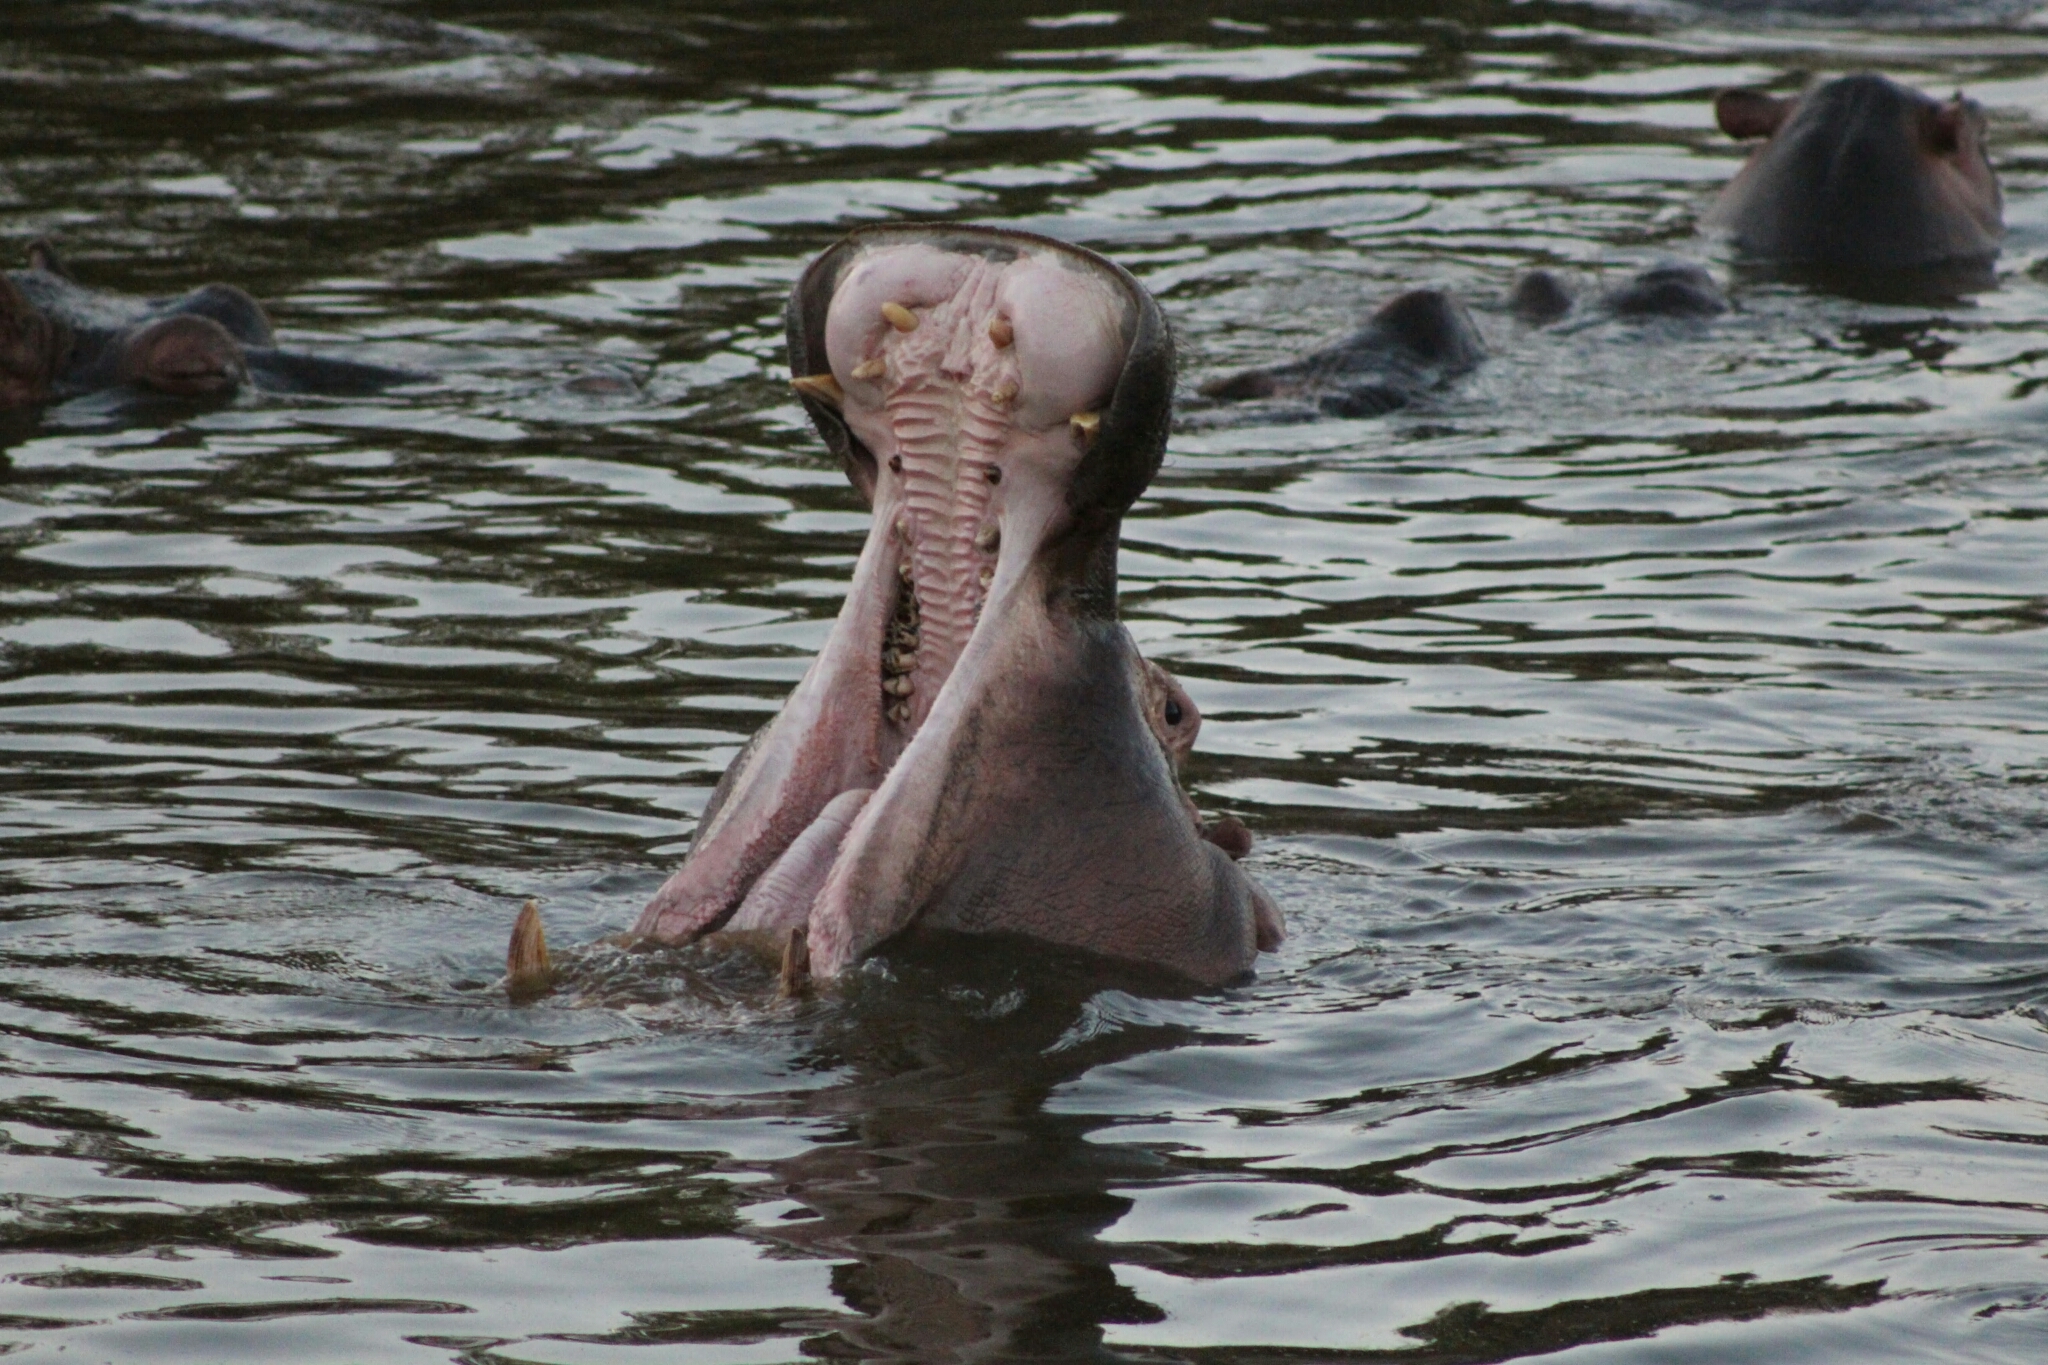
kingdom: Animalia
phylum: Chordata
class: Mammalia
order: Artiodactyla
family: Hippopotamidae
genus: Hippopotamus
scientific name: Hippopotamus amphibius
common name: Common hippopotamus
